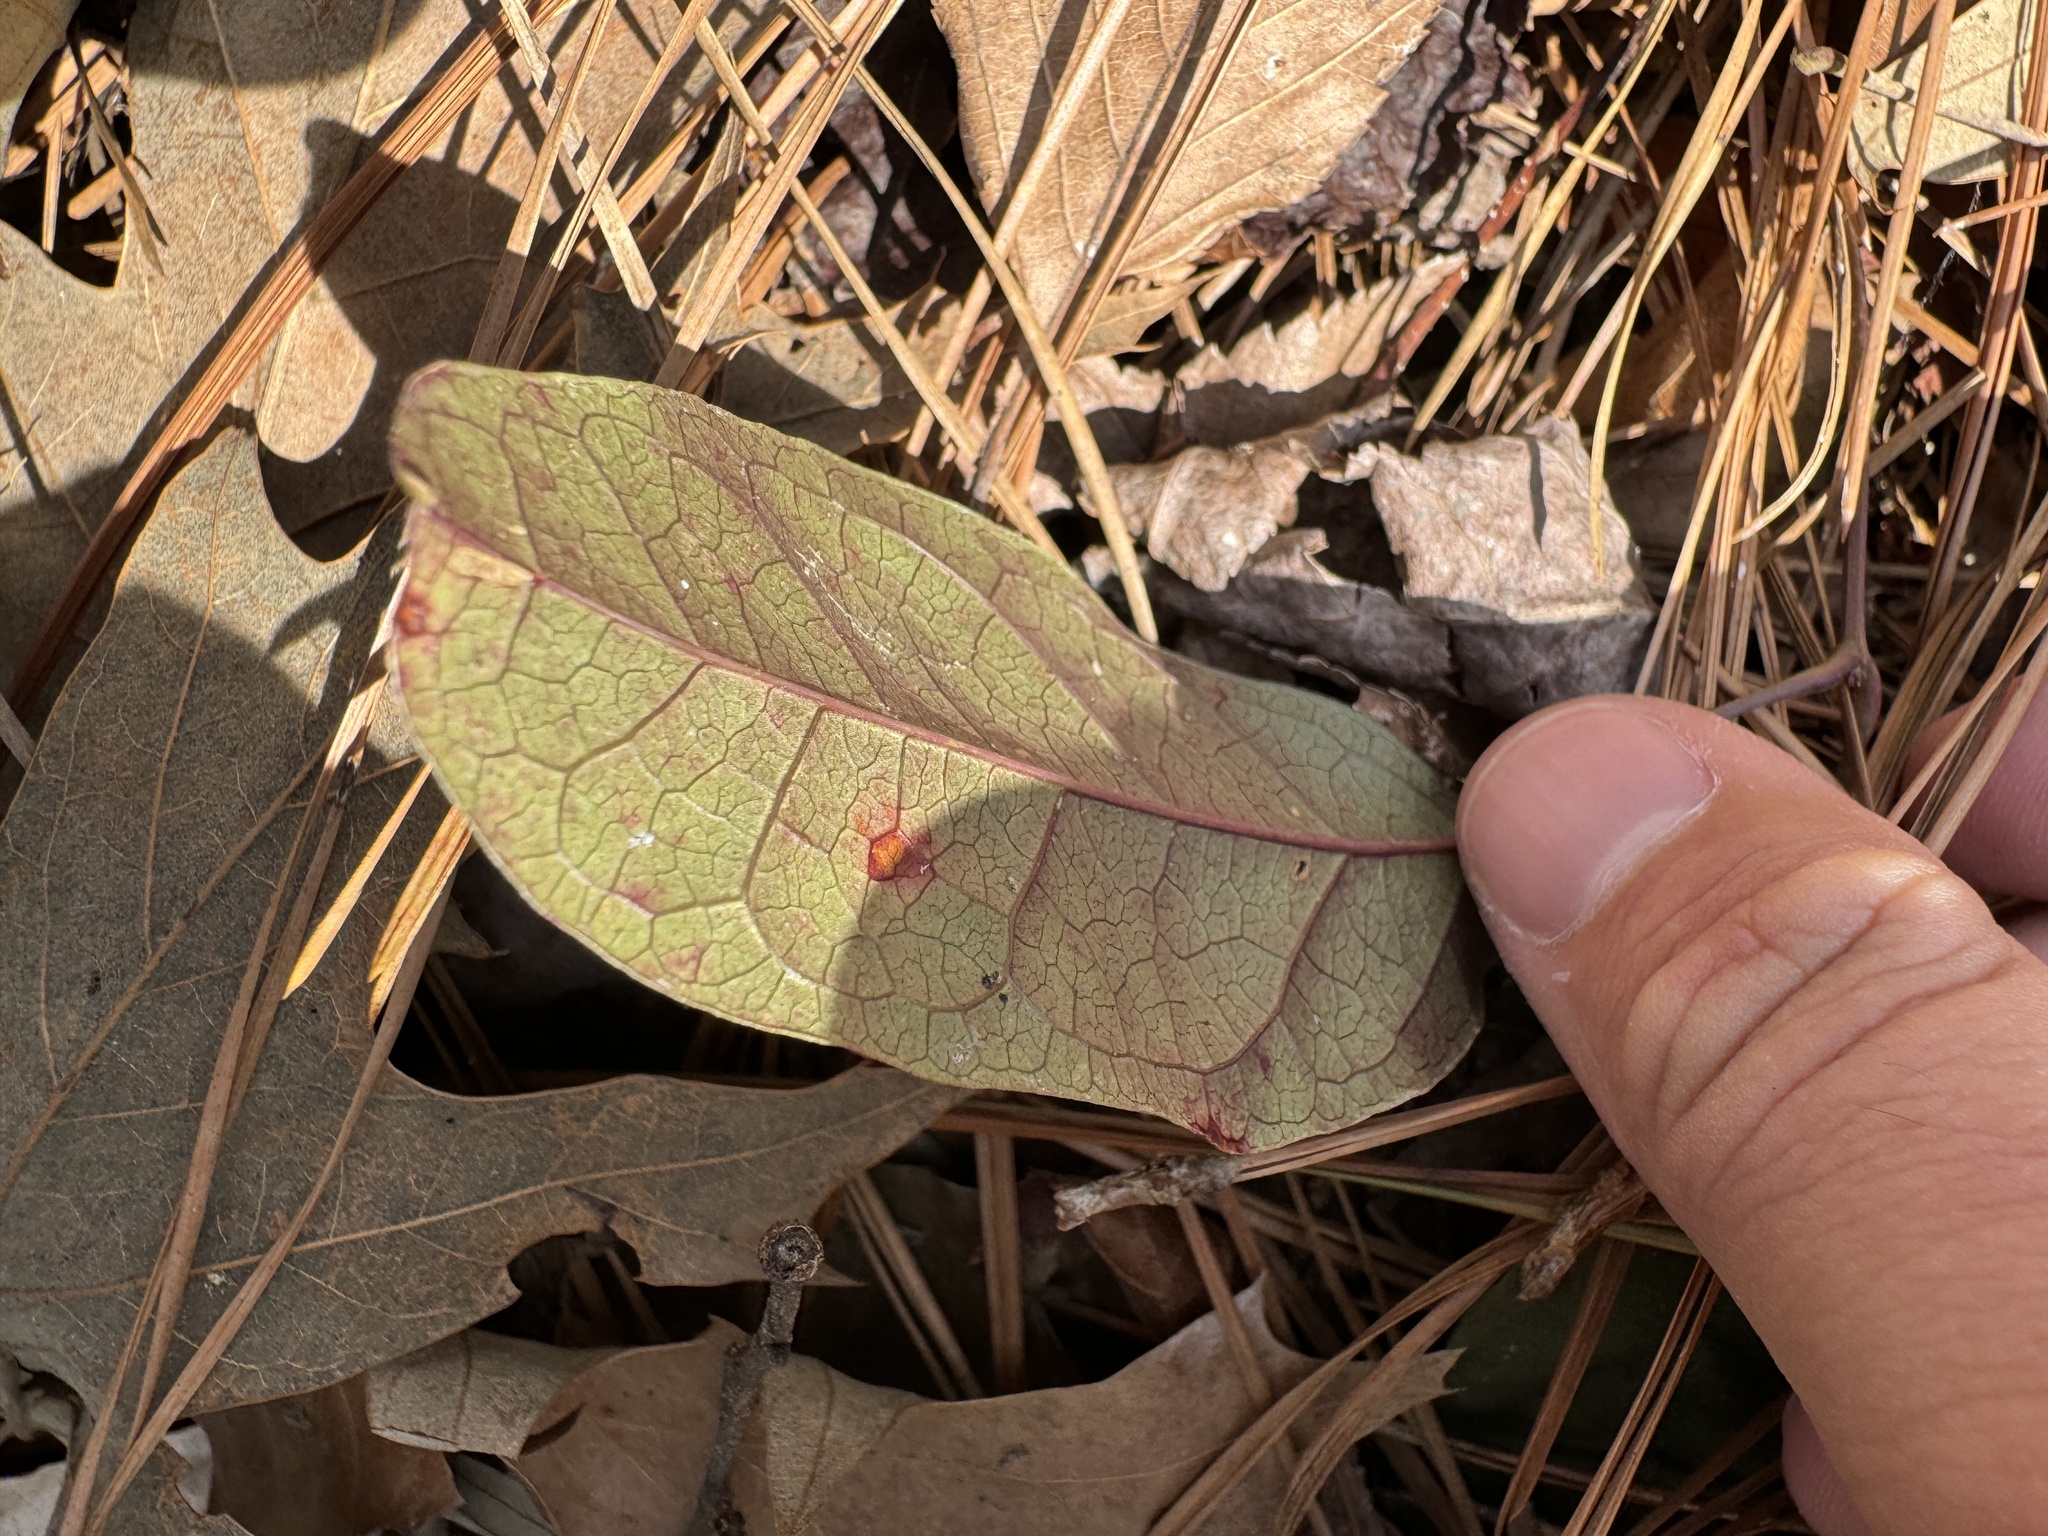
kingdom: Plantae
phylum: Tracheophyta
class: Magnoliopsida
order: Lamiales
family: Bignoniaceae
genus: Bignonia
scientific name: Bignonia capreolata
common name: Crossvine
